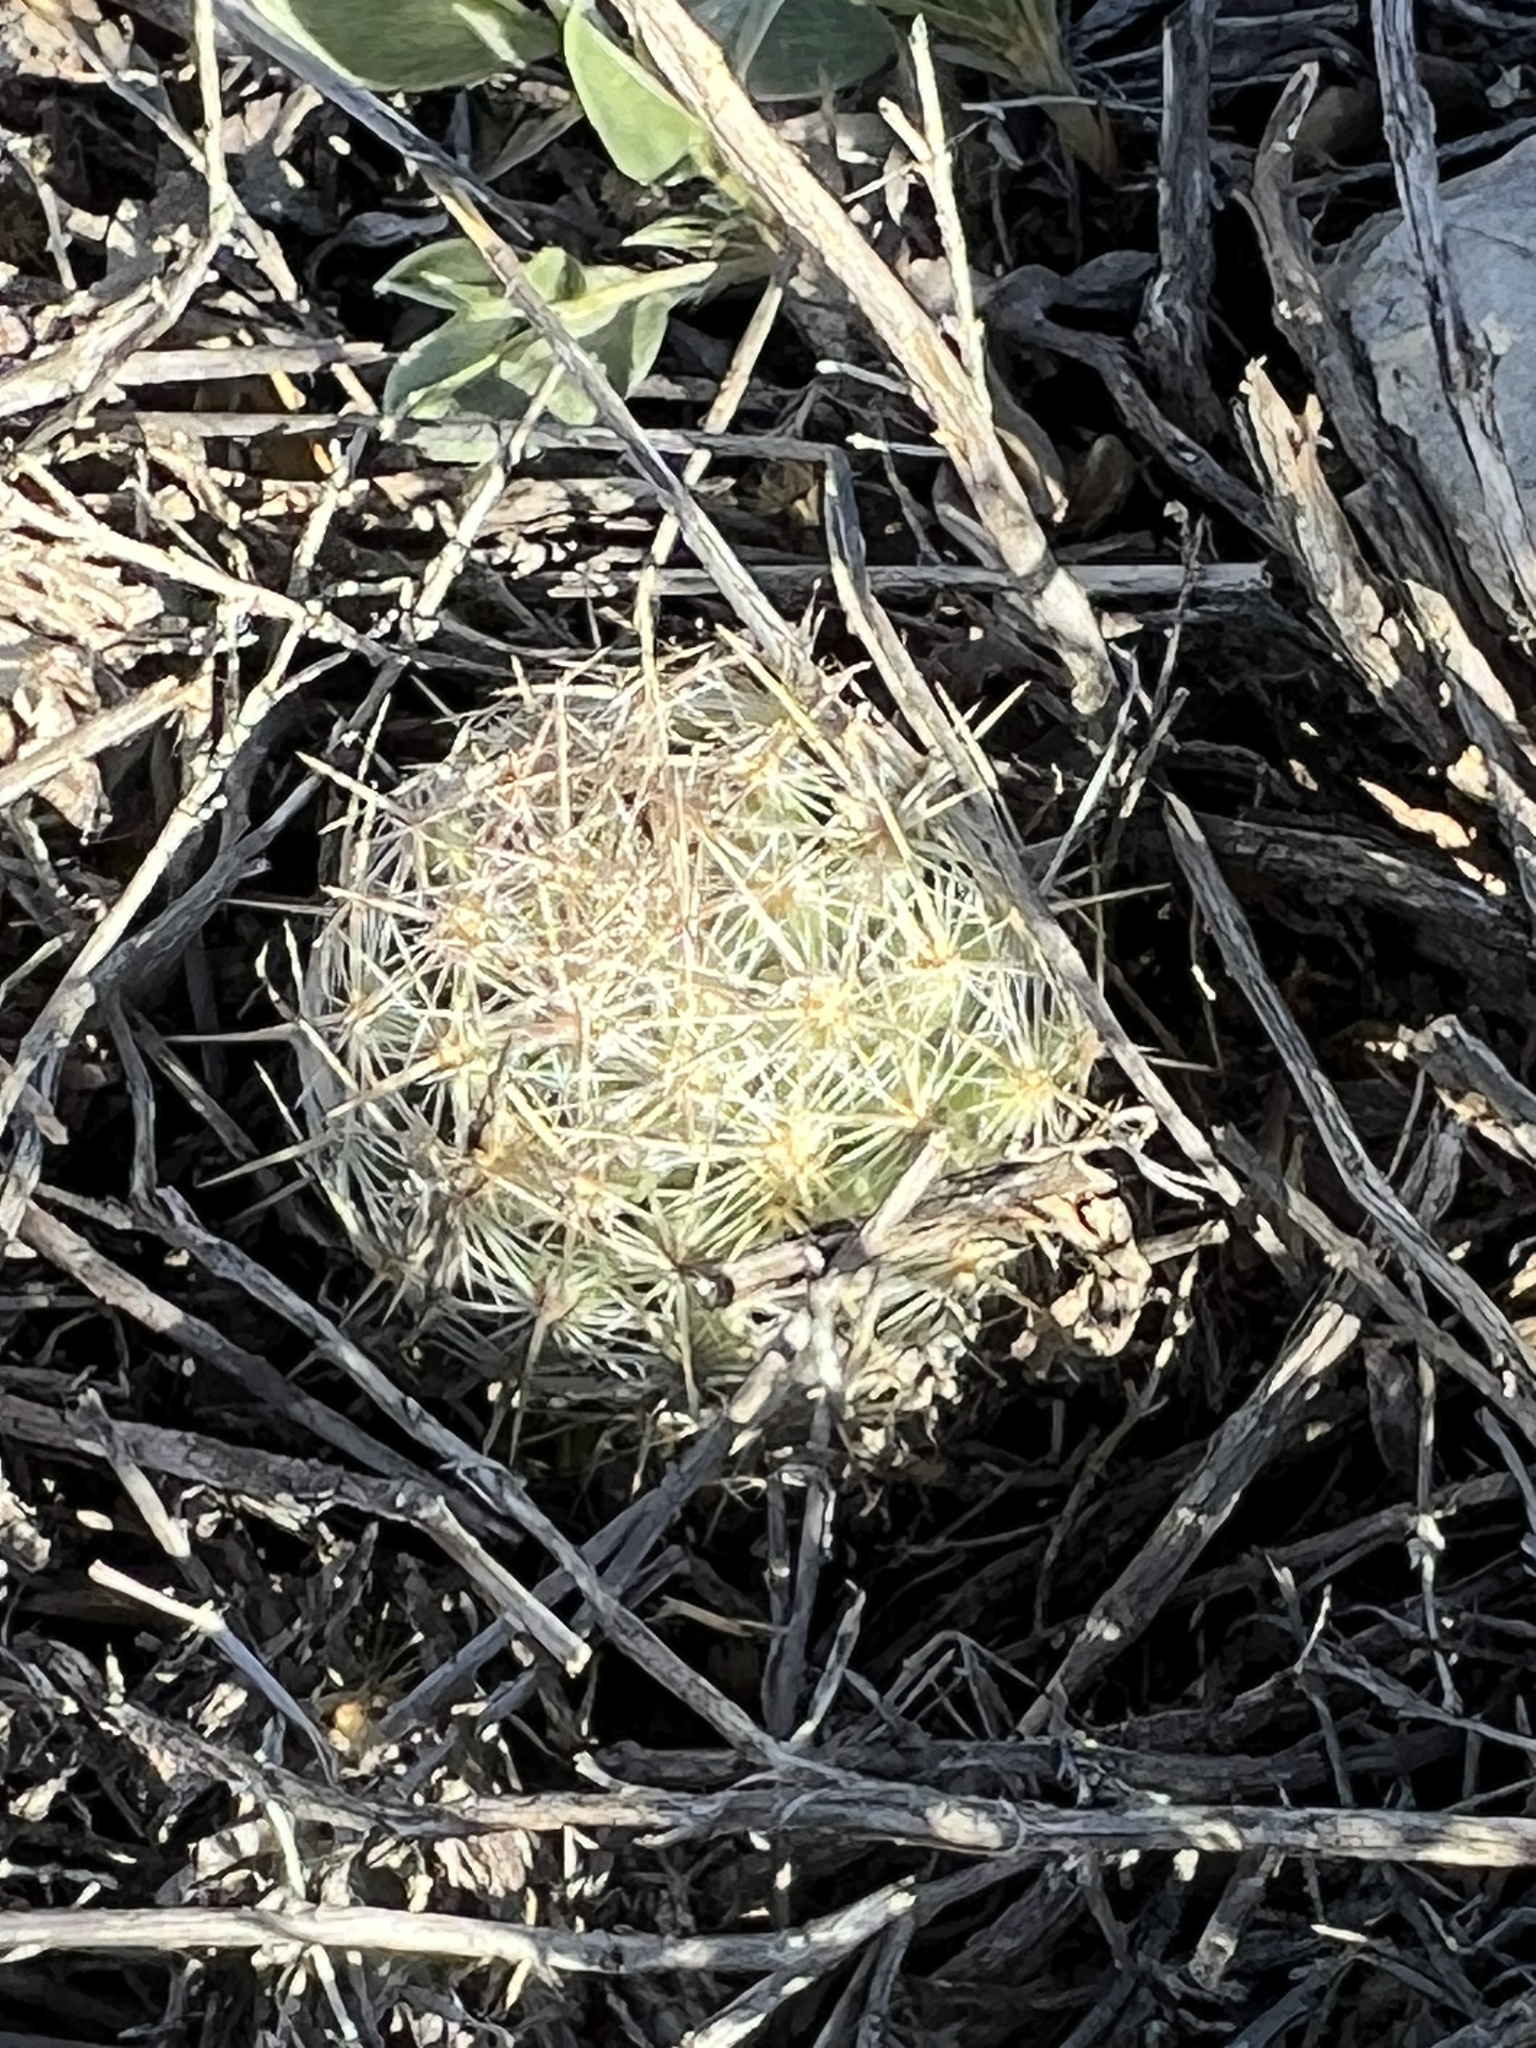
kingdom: Plantae
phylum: Tracheophyta
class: Magnoliopsida
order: Caryophyllales
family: Cactaceae
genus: Pelecyphora
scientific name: Pelecyphora tuberculosa
